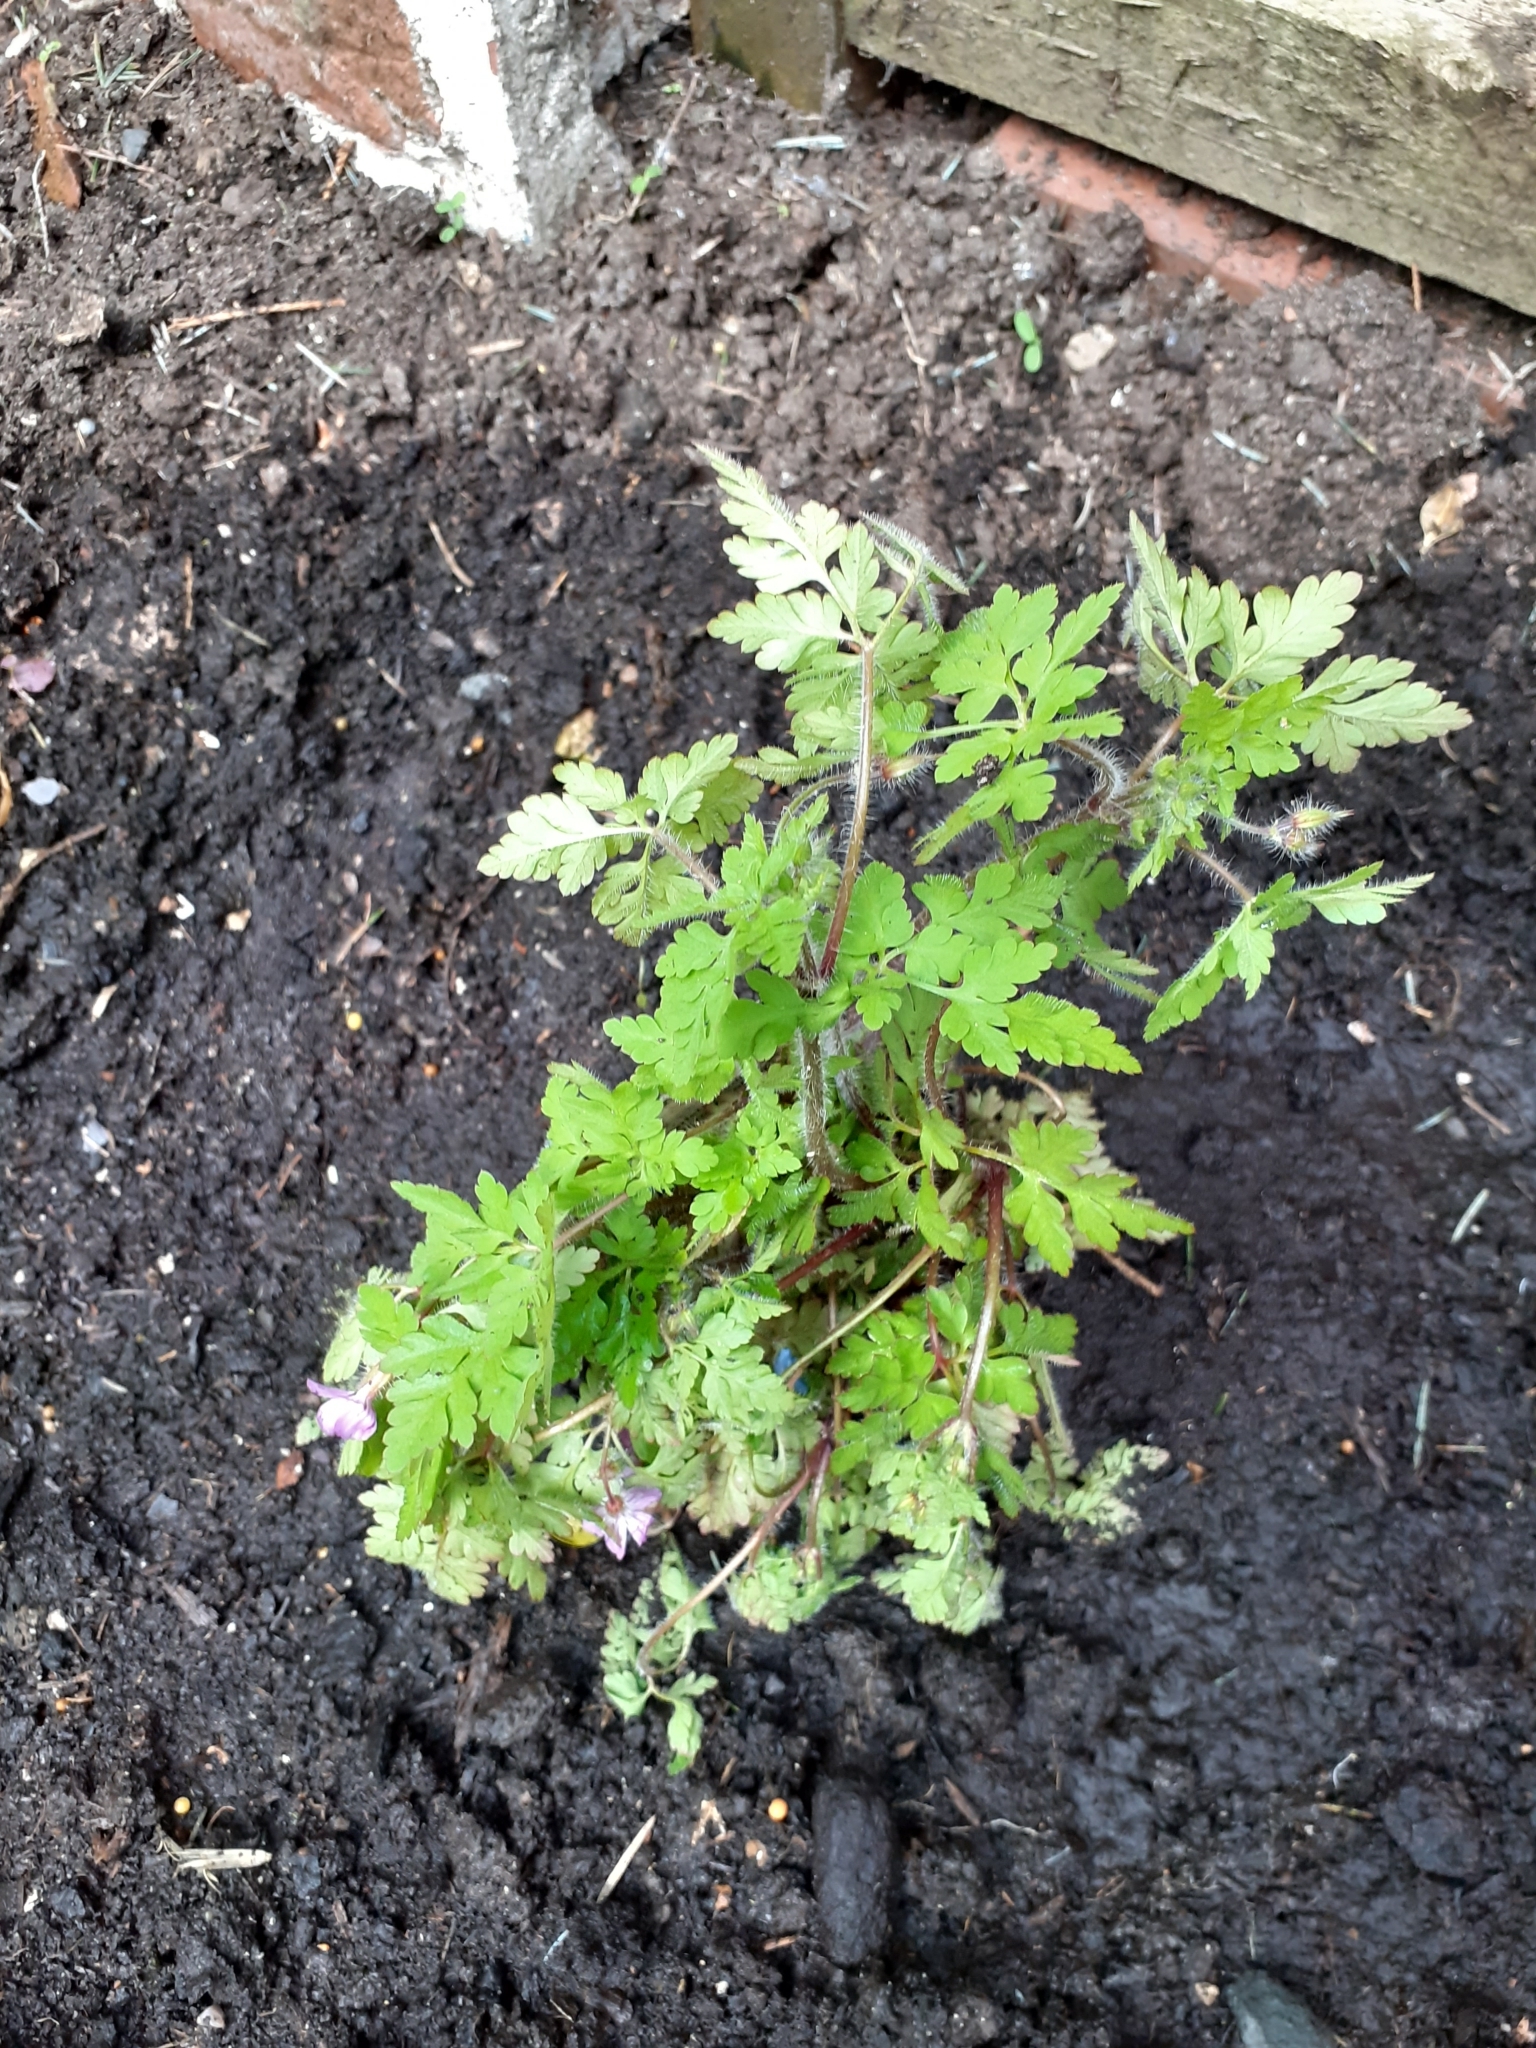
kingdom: Plantae
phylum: Tracheophyta
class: Magnoliopsida
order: Geraniales
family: Geraniaceae
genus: Geranium
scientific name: Geranium robertianum
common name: Herb-robert
